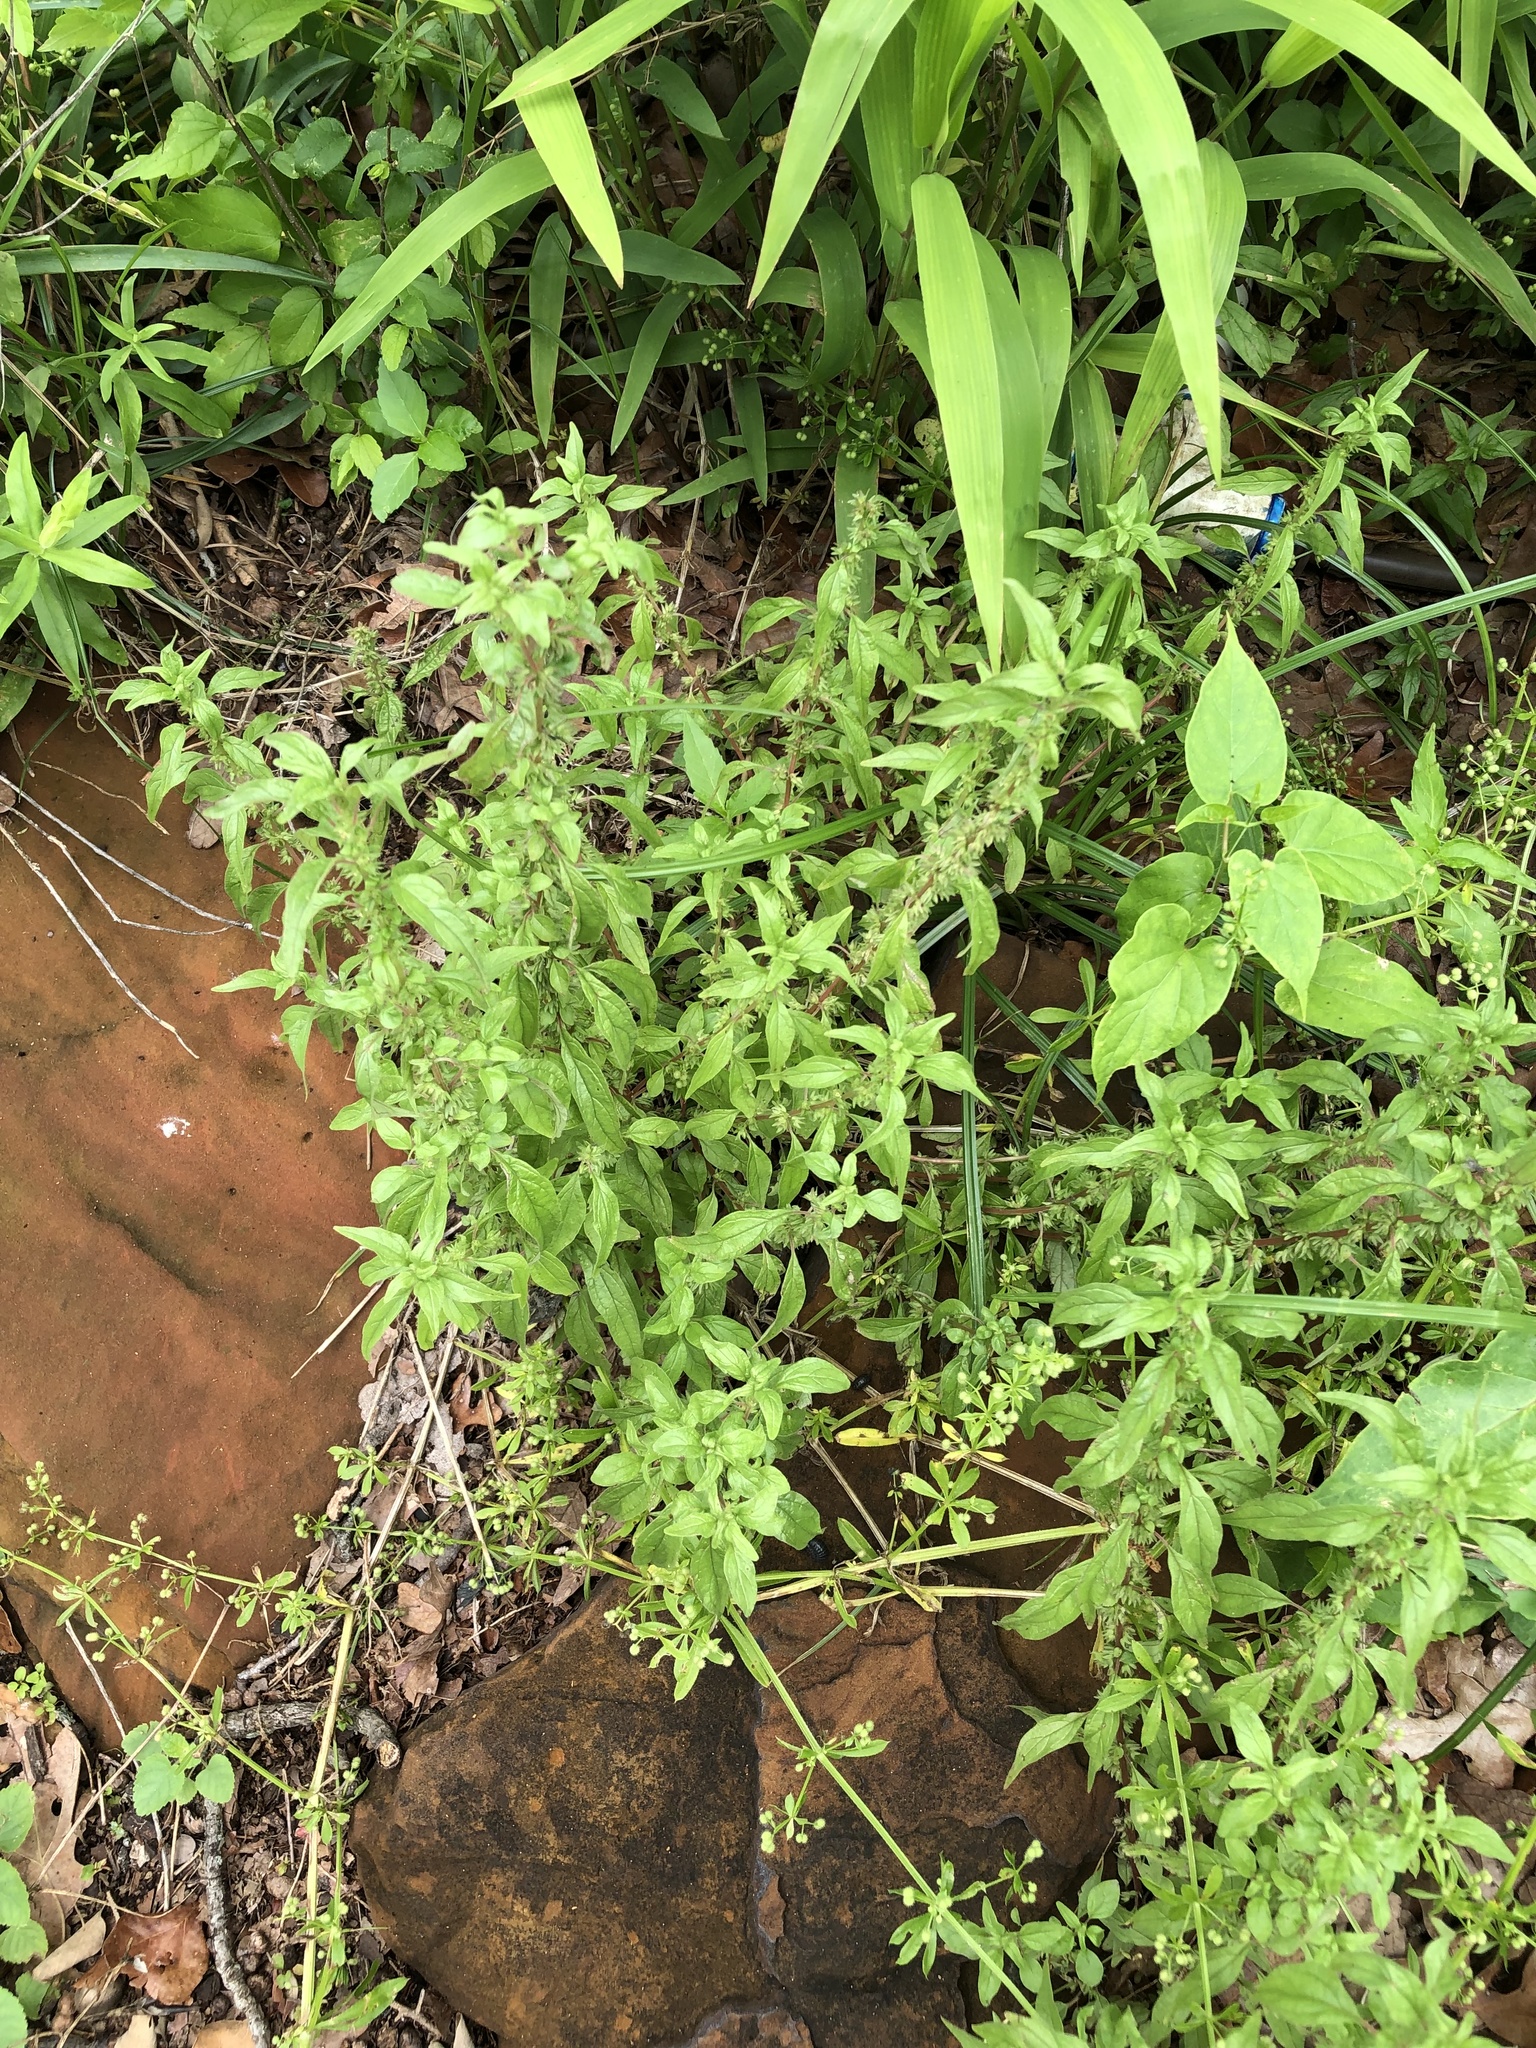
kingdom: Plantae
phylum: Tracheophyta
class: Magnoliopsida
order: Rosales
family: Urticaceae
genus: Parietaria
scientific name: Parietaria pensylvanica
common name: Pennsylvania pellitory
